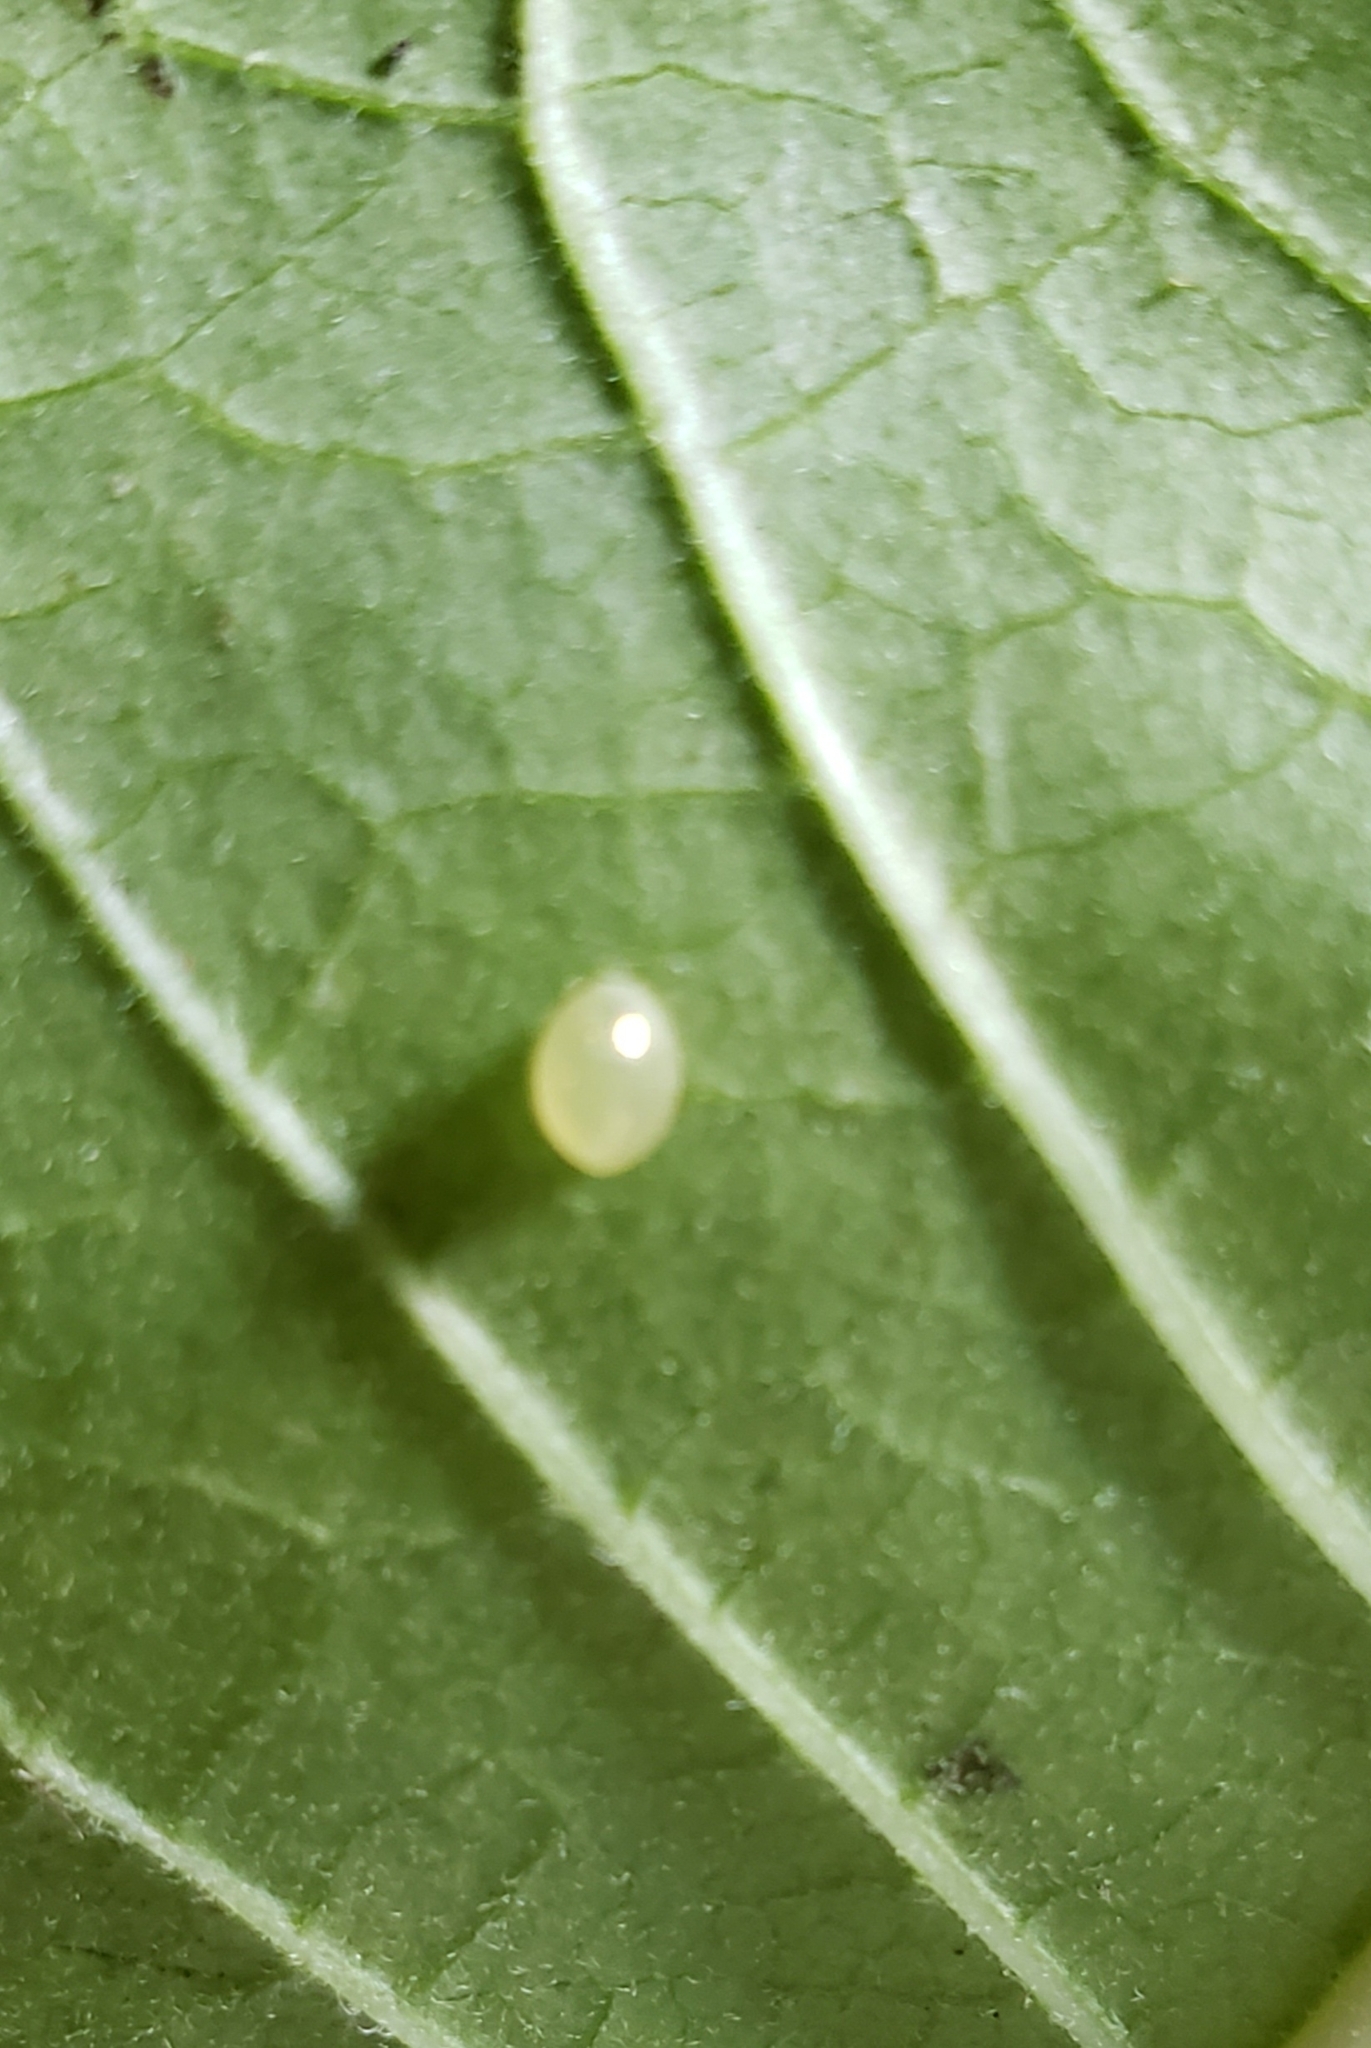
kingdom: Animalia
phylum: Arthropoda
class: Insecta
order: Lepidoptera
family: Nymphalidae
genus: Danaus
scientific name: Danaus plexippus
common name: Monarch
